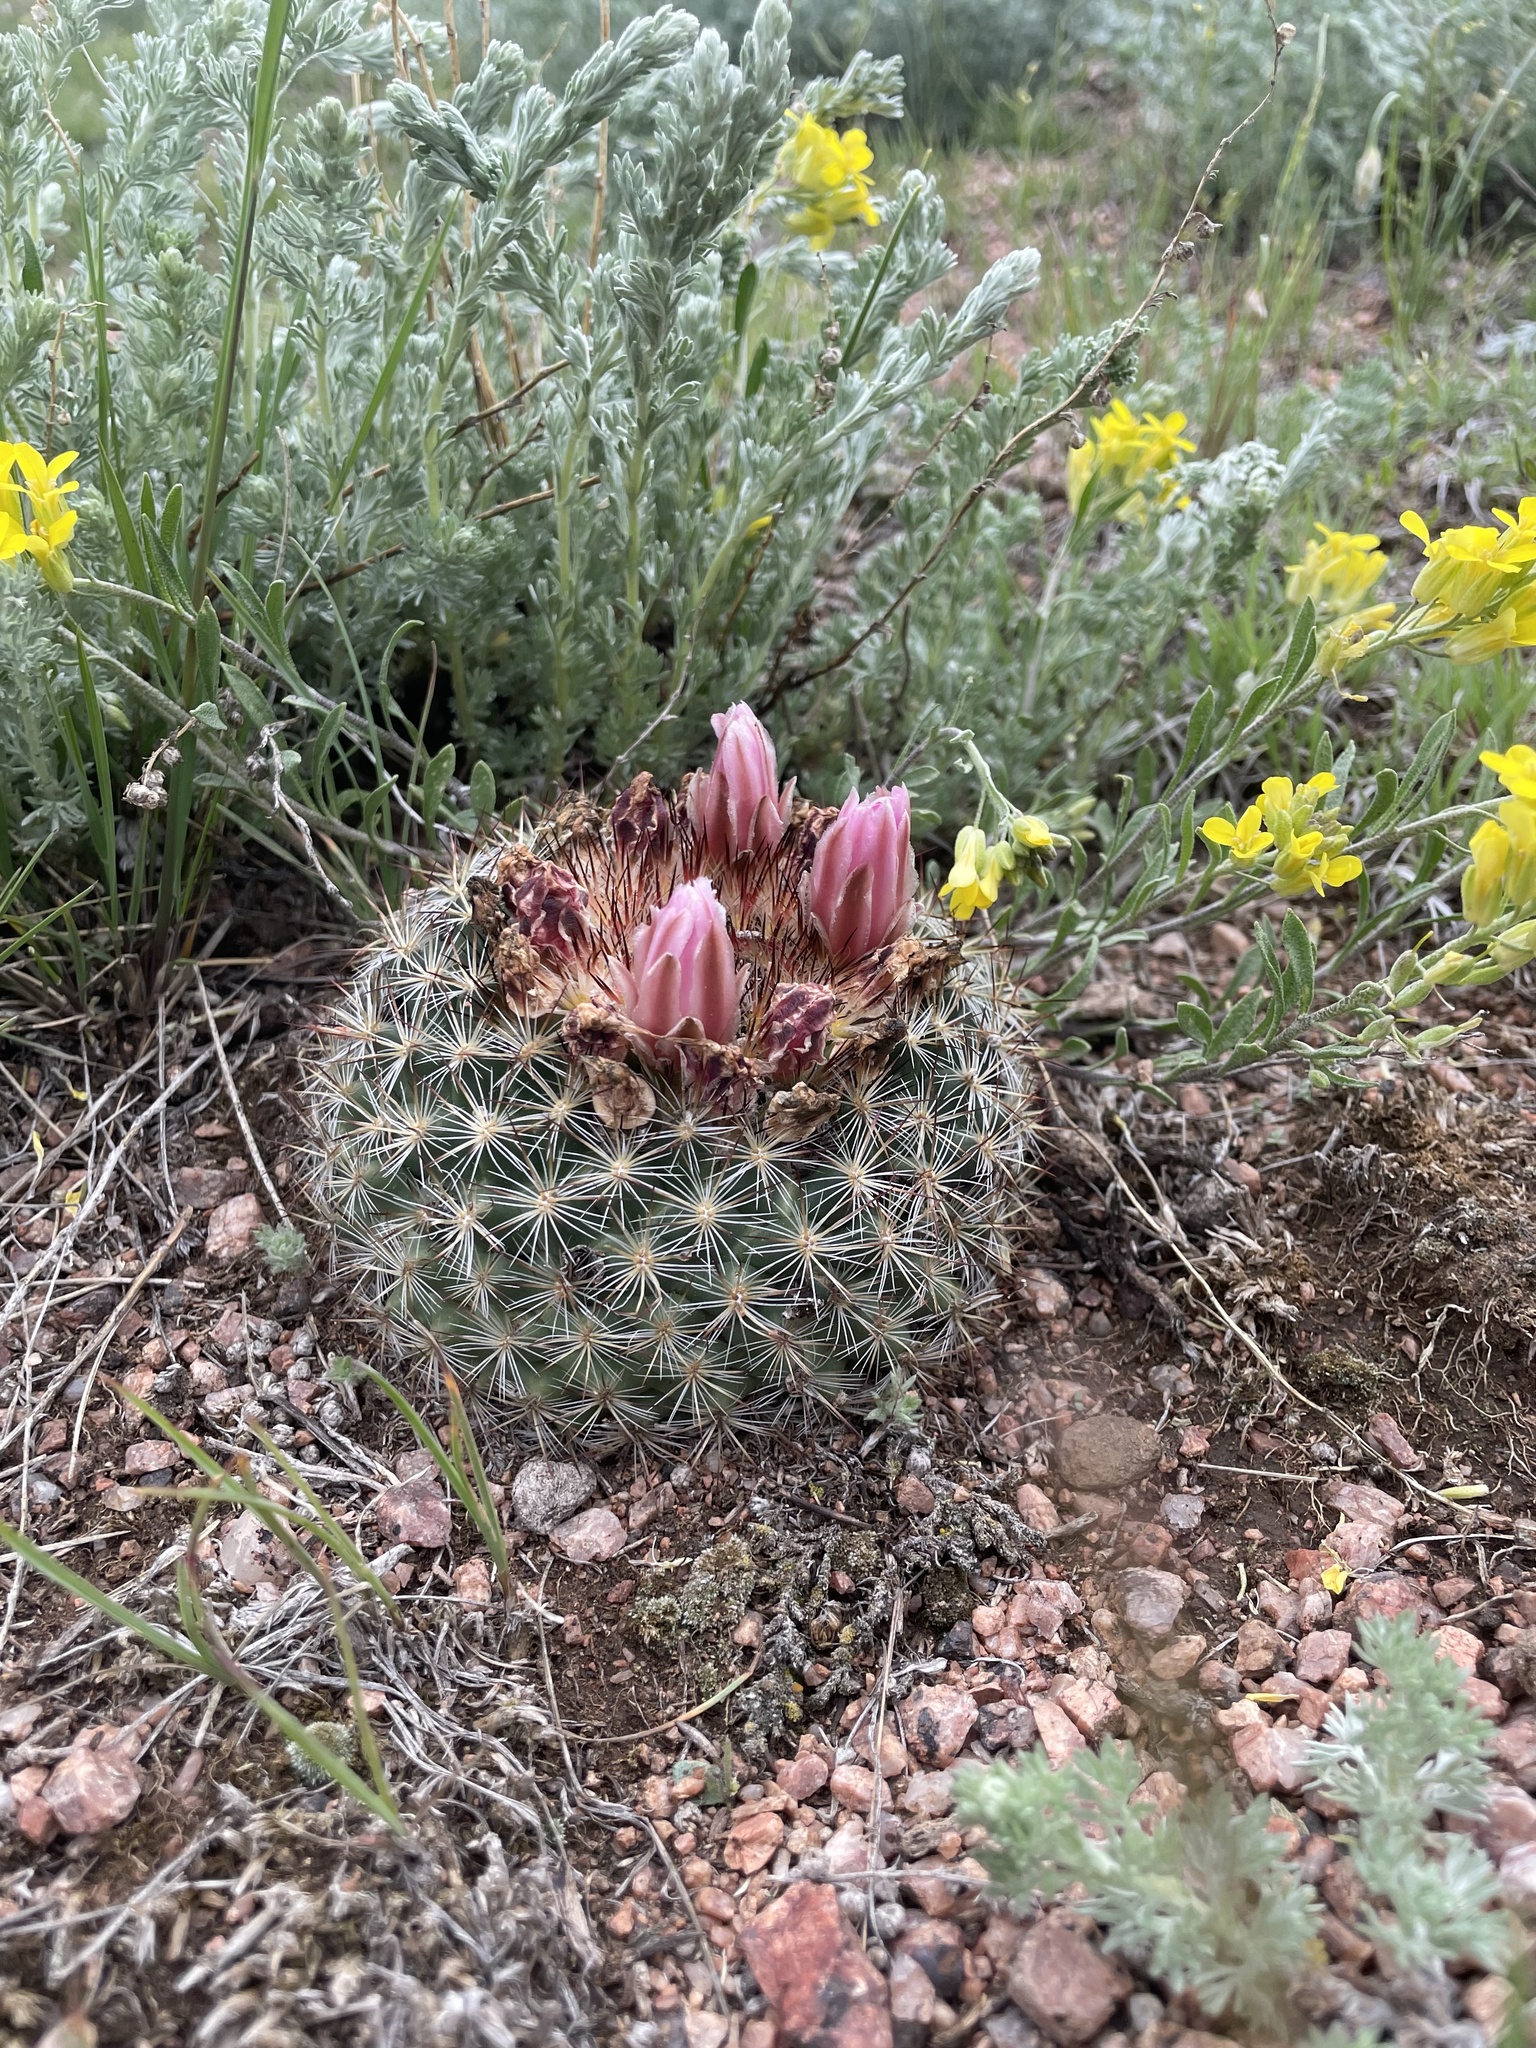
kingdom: Plantae
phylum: Tracheophyta
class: Magnoliopsida
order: Caryophyllales
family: Cactaceae
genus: Pediocactus
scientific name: Pediocactus simpsonii
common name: Simpson's hedgehog cactus
